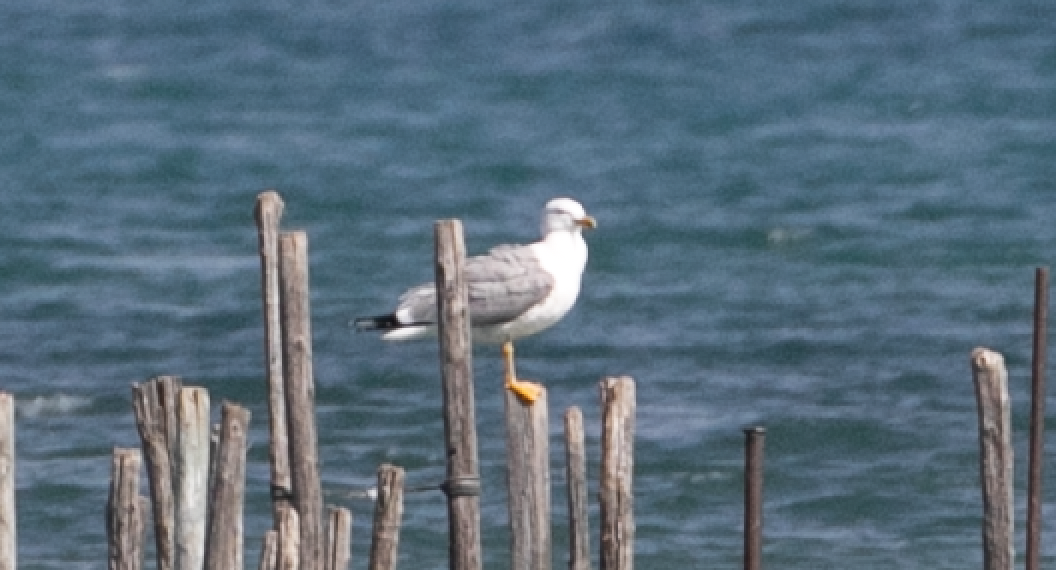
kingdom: Animalia
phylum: Chordata
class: Aves
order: Charadriiformes
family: Laridae
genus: Larus
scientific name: Larus michahellis
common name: Yellow-legged gull
